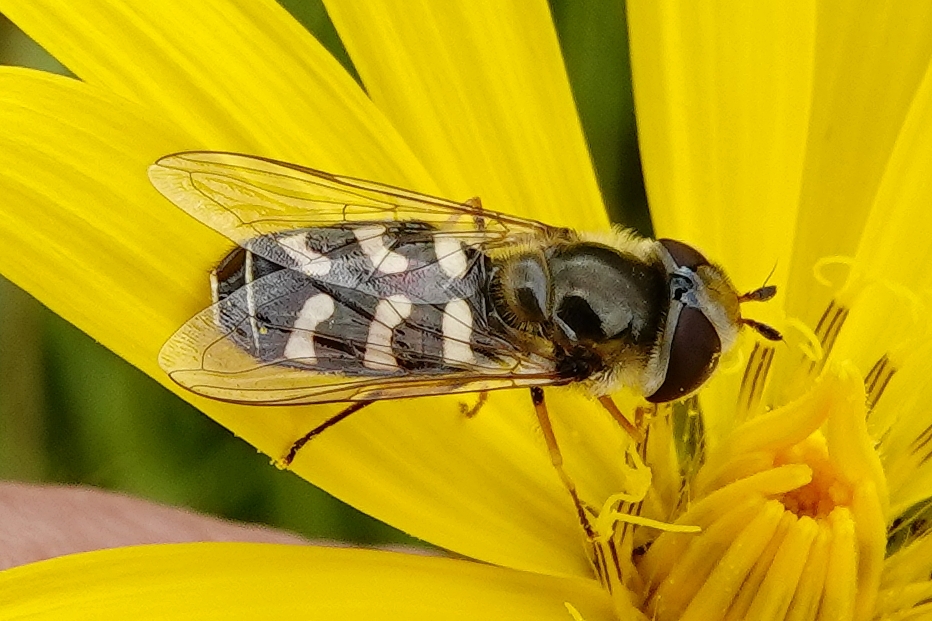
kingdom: Animalia
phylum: Arthropoda
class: Insecta
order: Diptera
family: Syrphidae
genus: Scaeva
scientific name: Scaeva pyrastri
